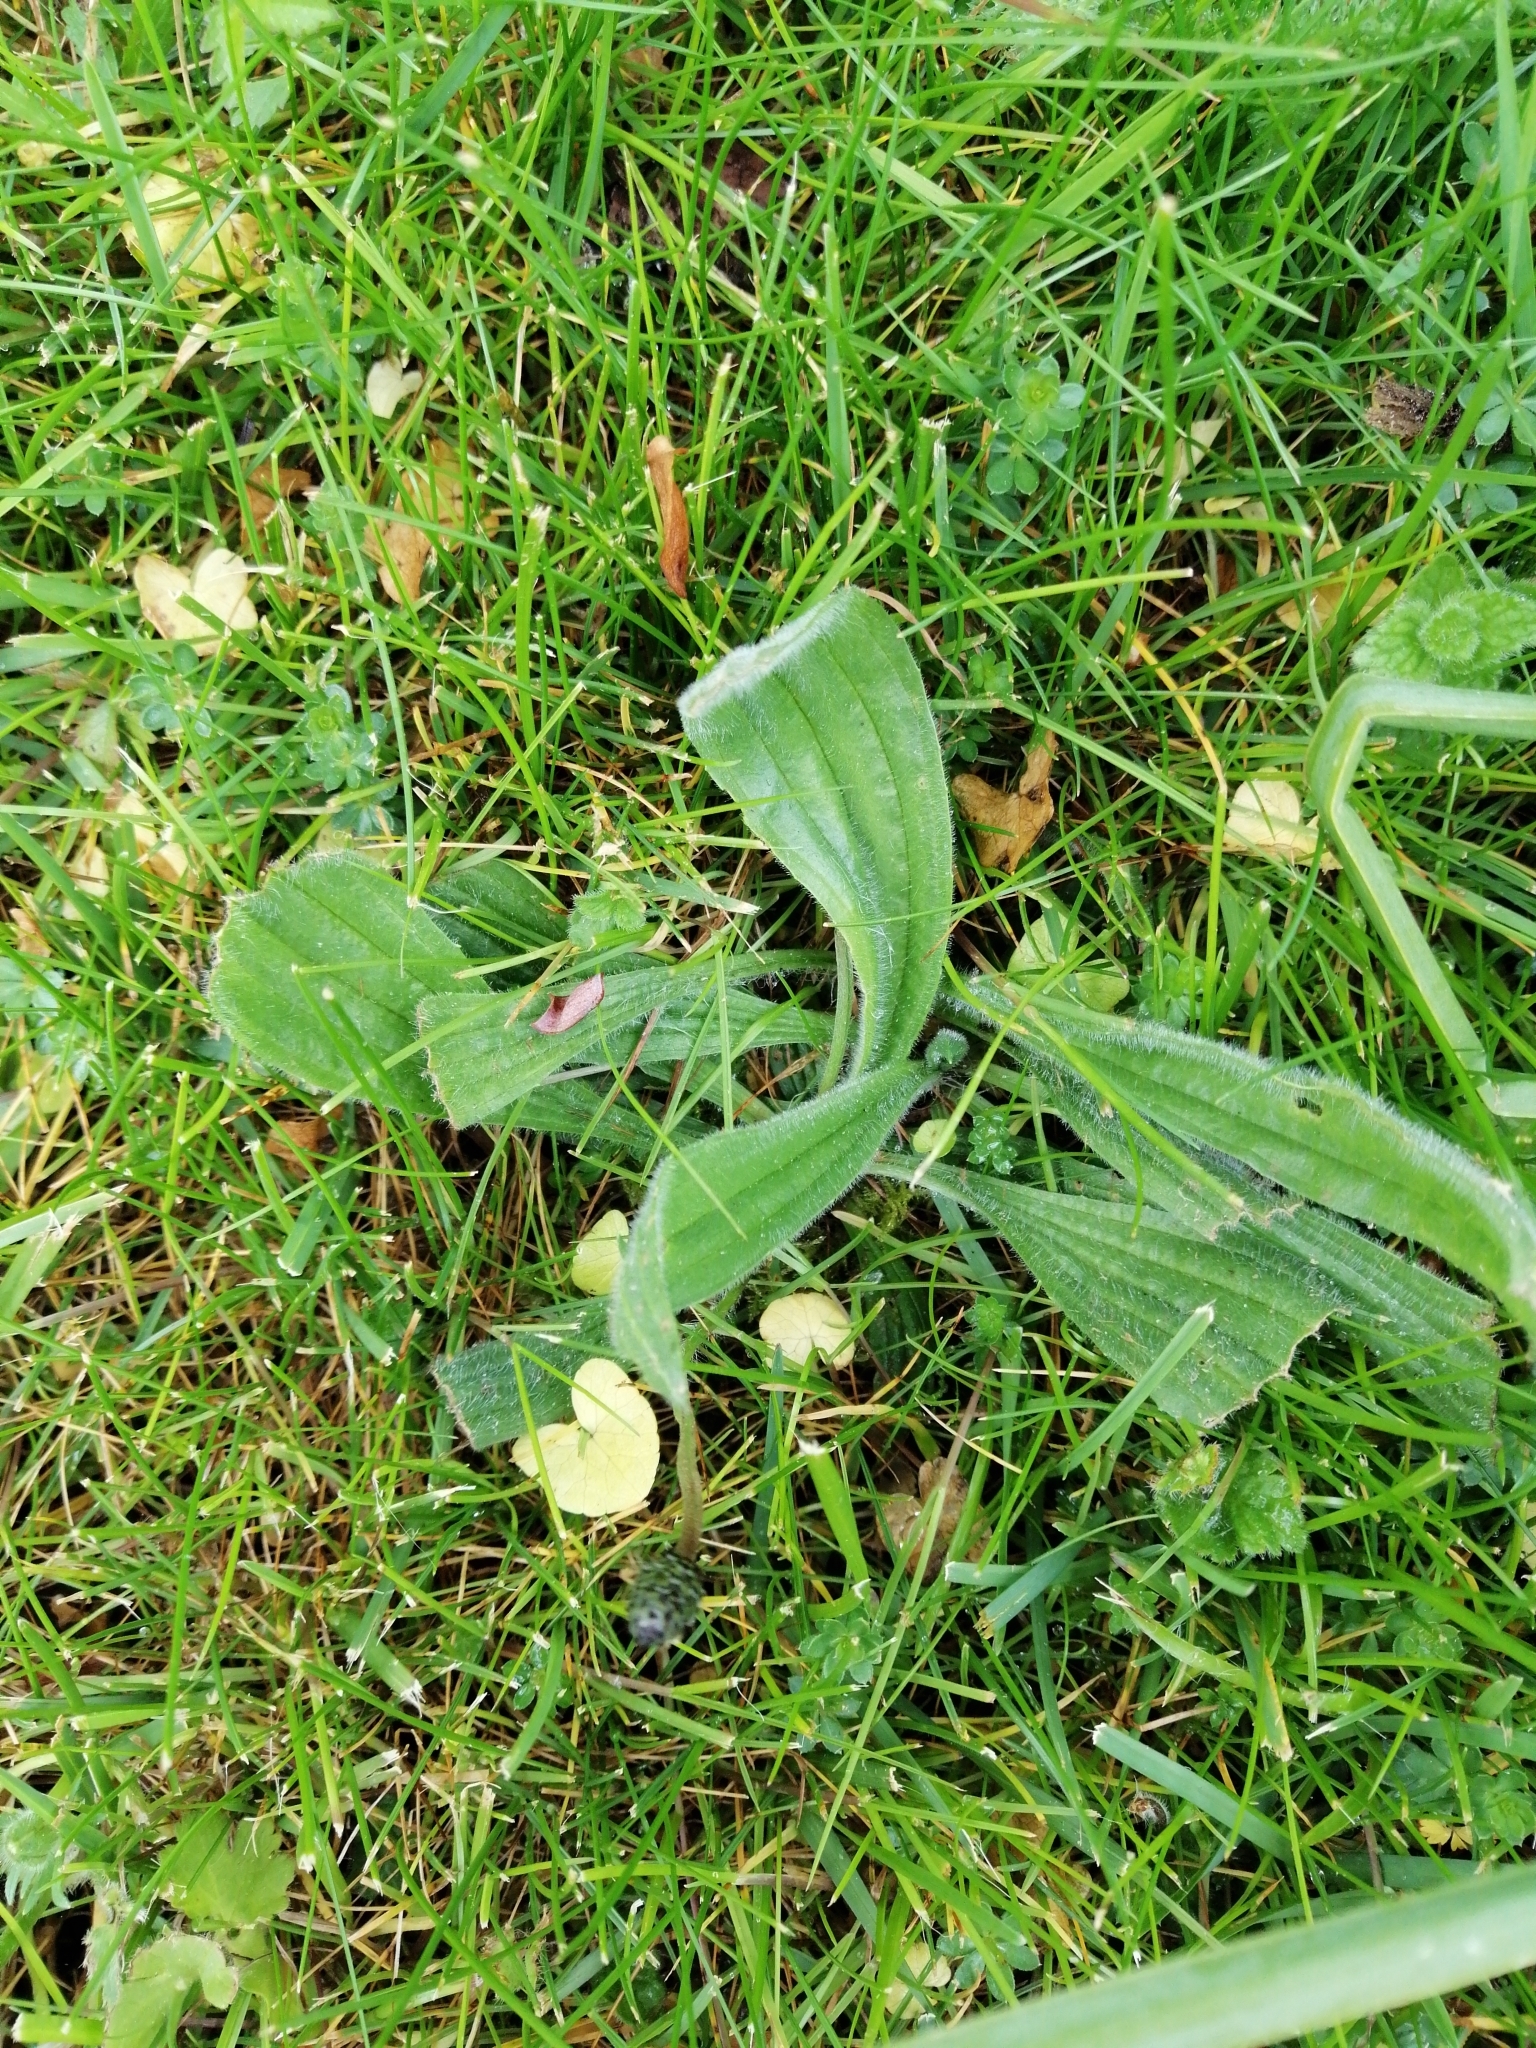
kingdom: Plantae
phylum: Tracheophyta
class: Magnoliopsida
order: Lamiales
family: Plantaginaceae
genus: Plantago
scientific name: Plantago lanceolata
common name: Ribwort plantain
